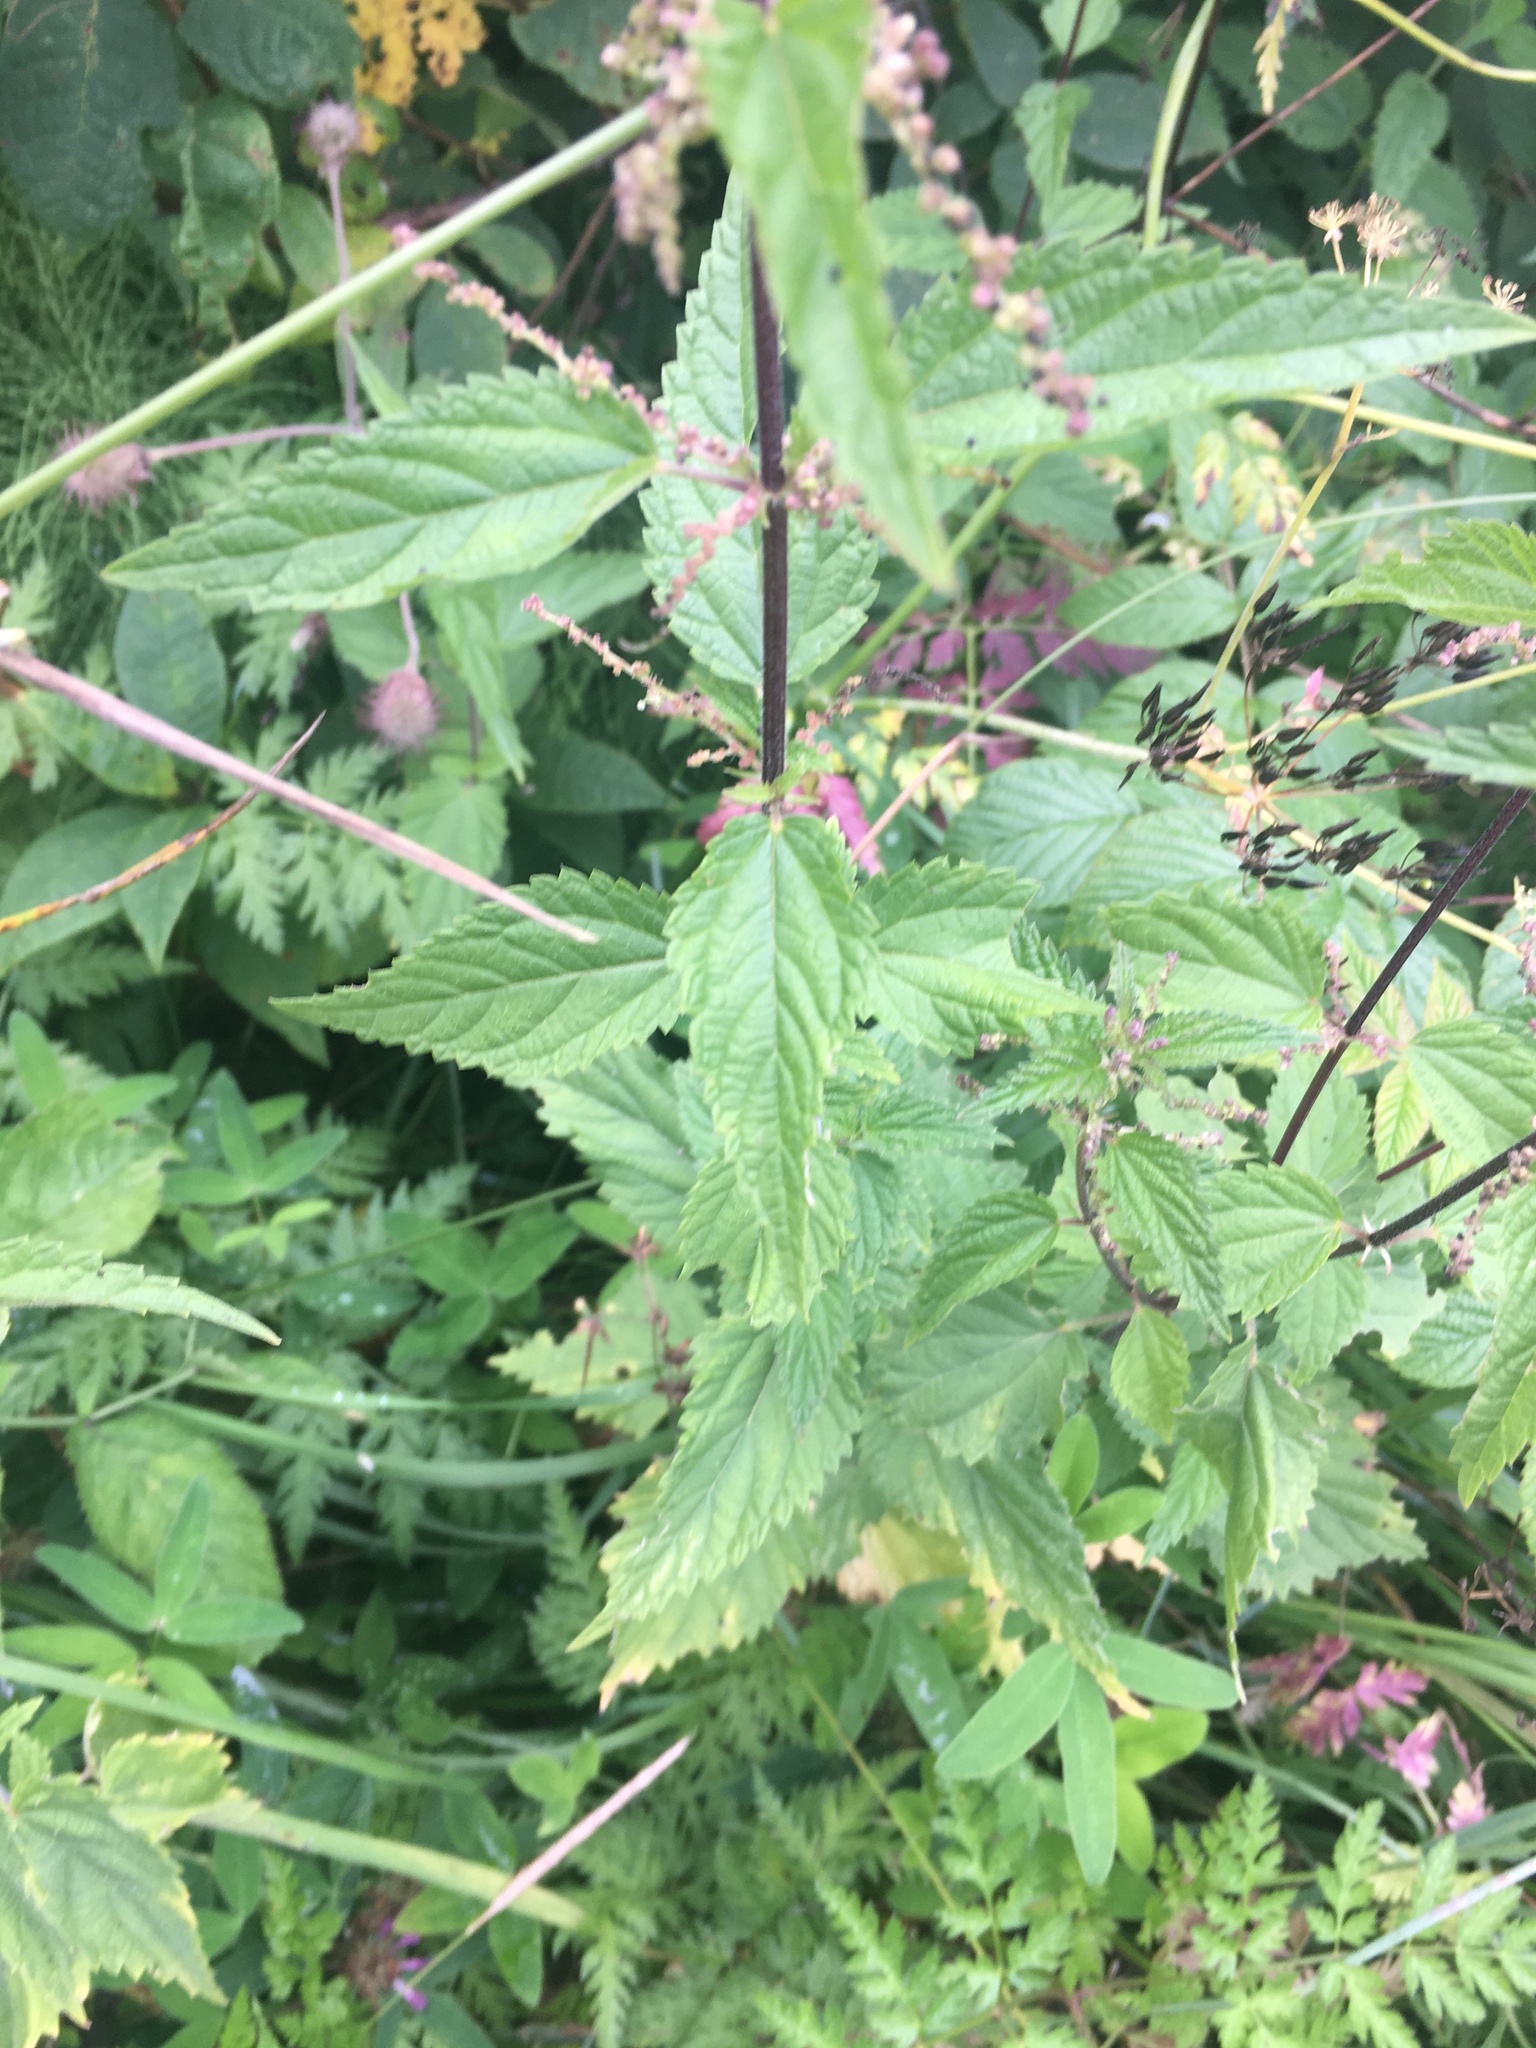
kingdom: Plantae
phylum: Tracheophyta
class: Magnoliopsida
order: Rosales
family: Urticaceae
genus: Urtica
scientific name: Urtica dioica
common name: Common nettle
